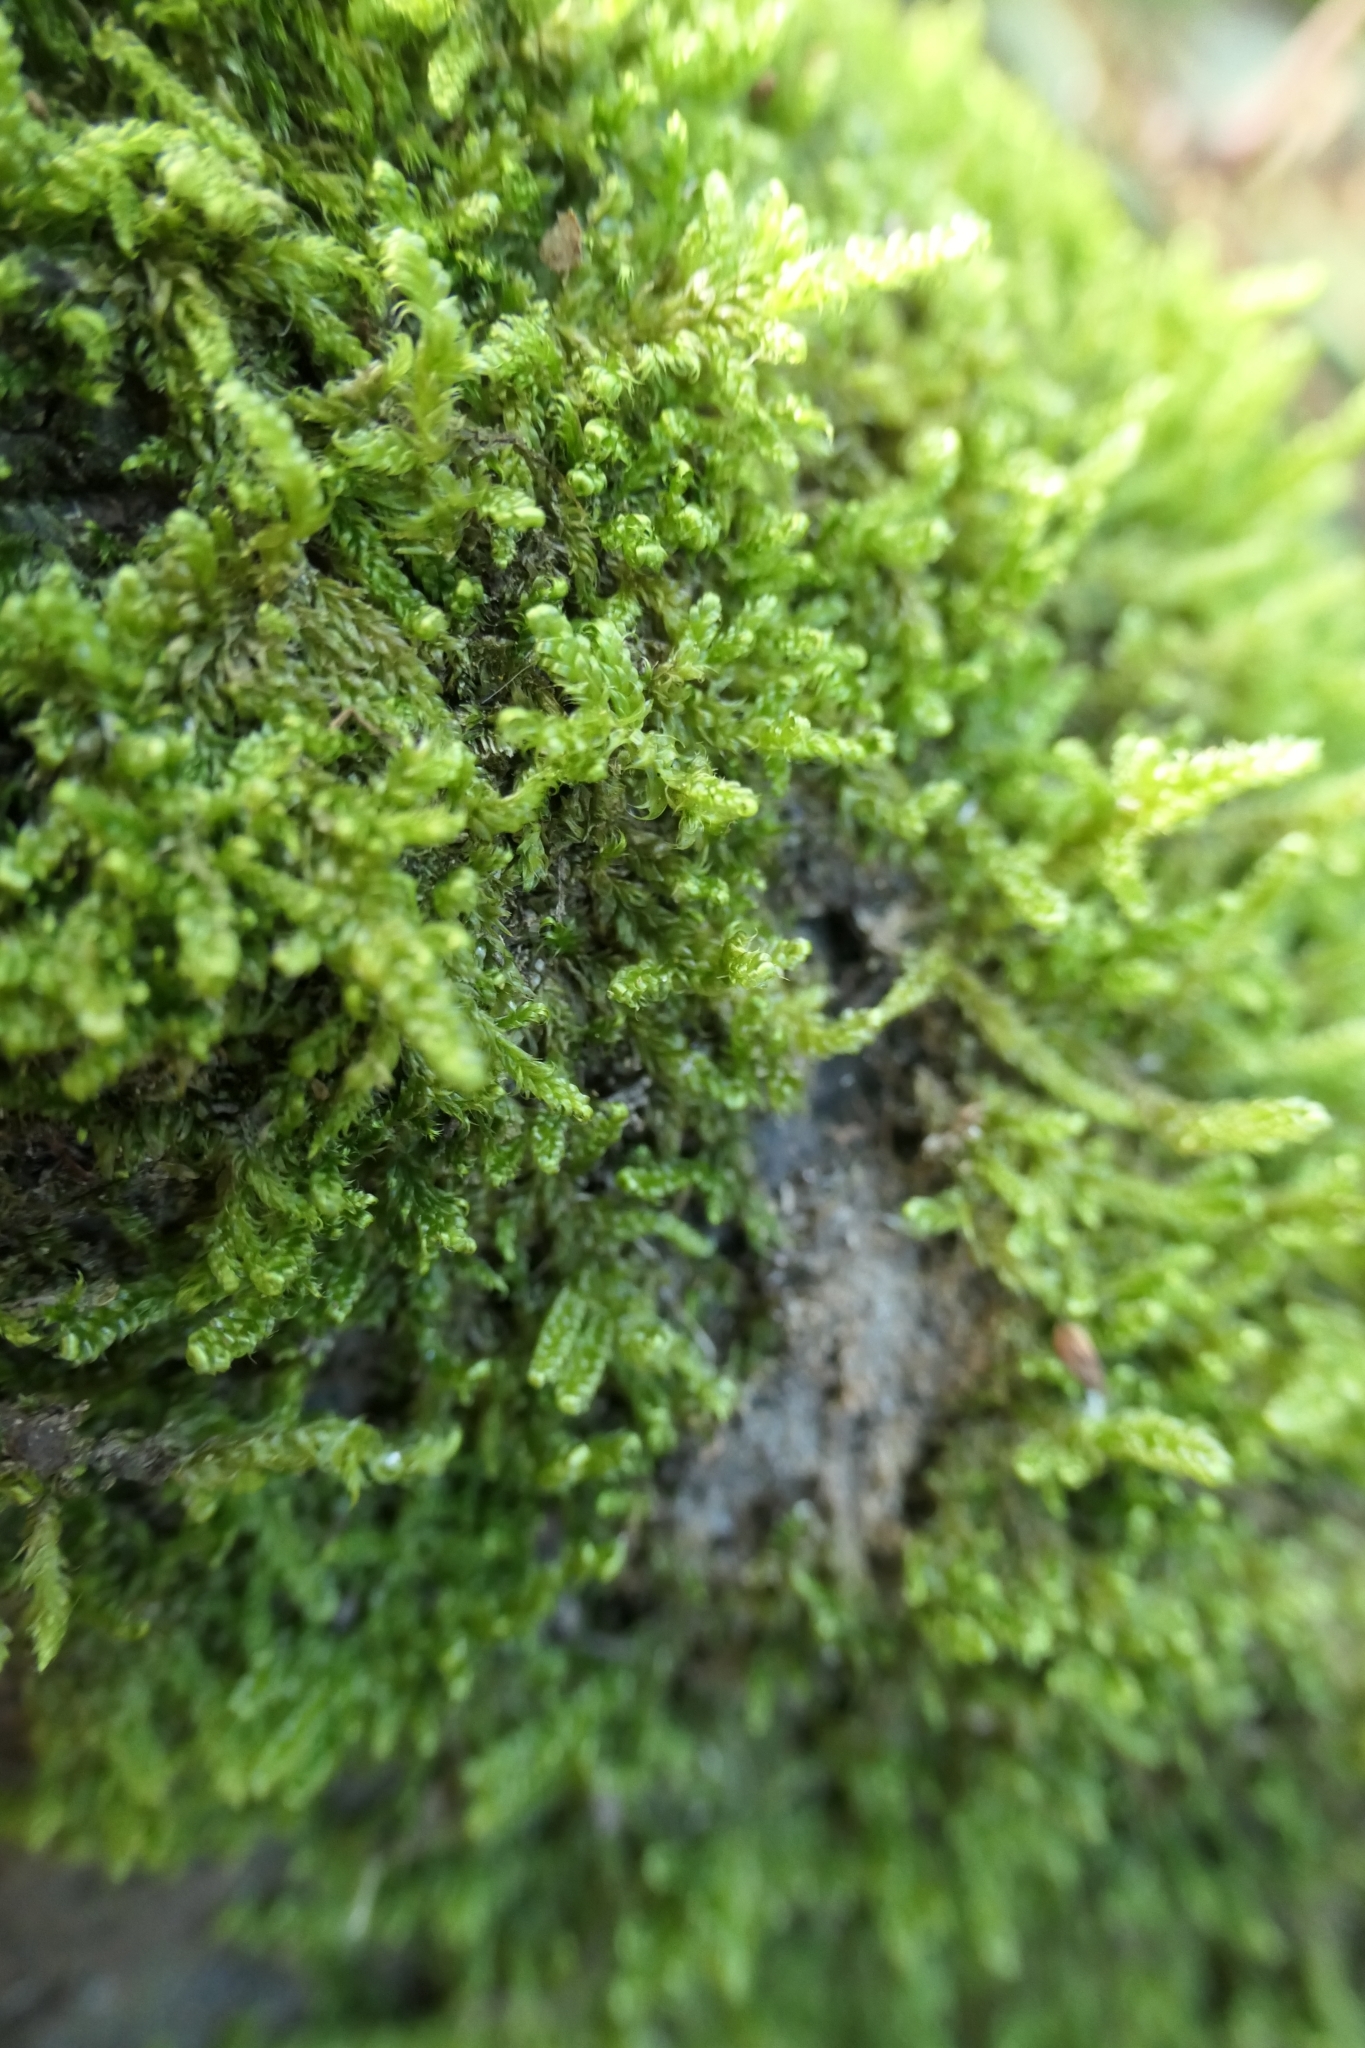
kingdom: Plantae
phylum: Bryophyta
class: Bryopsida
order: Hypnales
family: Hypnaceae
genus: Hypnum
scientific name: Hypnum cupressiforme
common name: Cypress-leaved plait-moss
